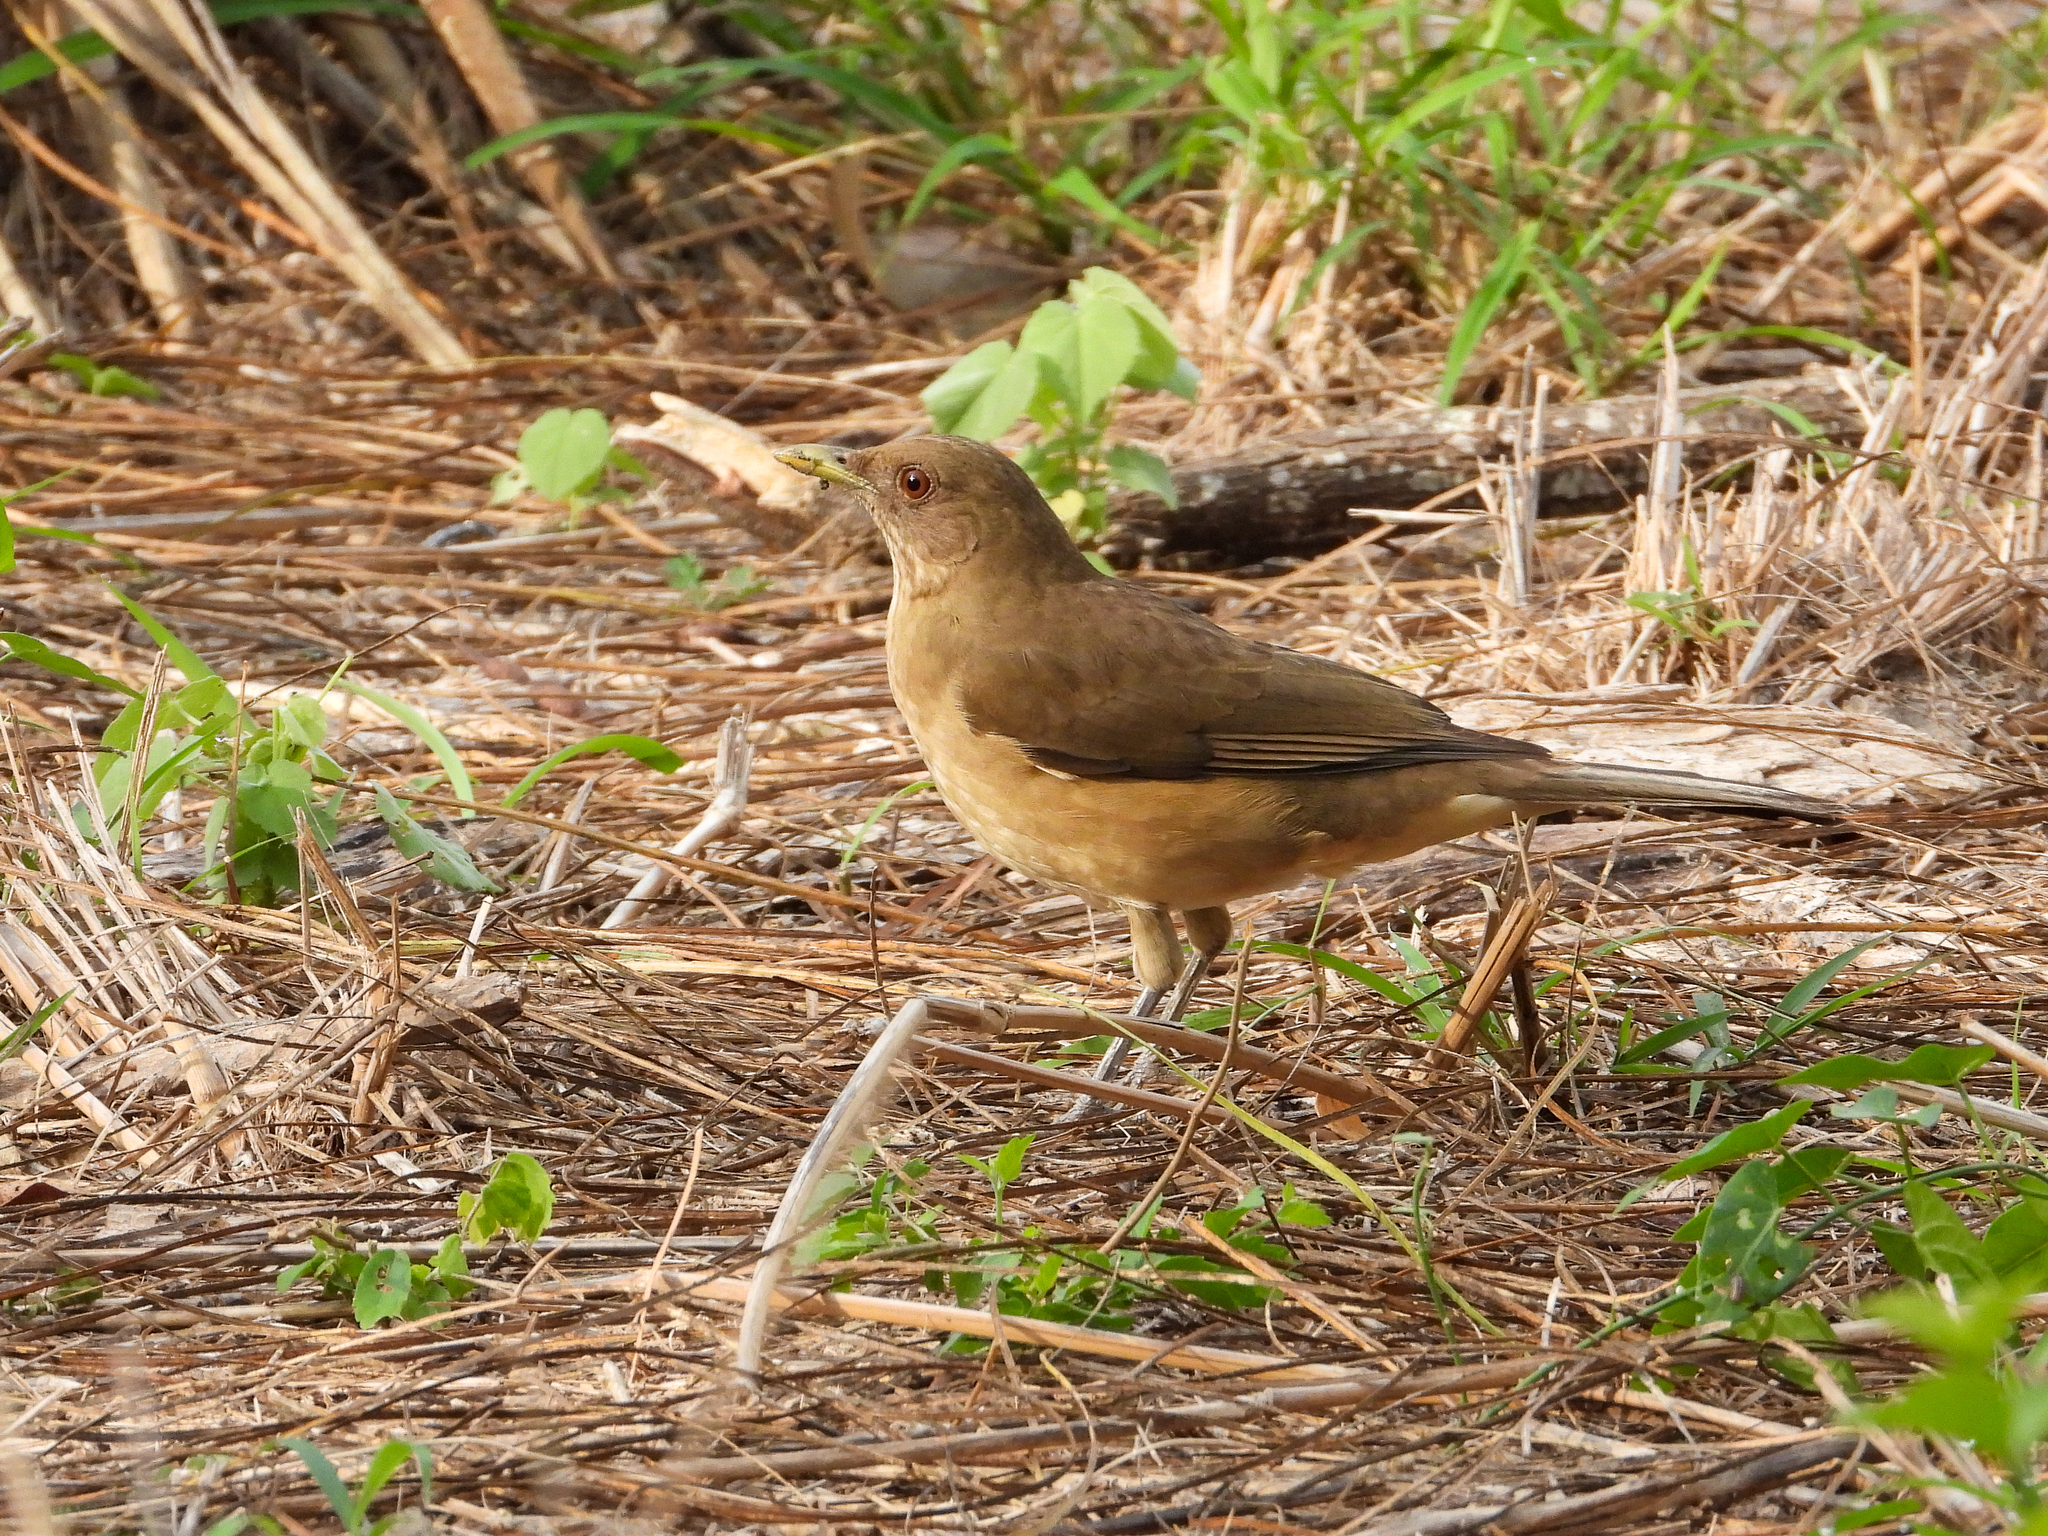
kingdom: Animalia
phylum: Chordata
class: Aves
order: Passeriformes
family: Turdidae
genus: Turdus
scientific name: Turdus grayi
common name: Clay-colored thrush
